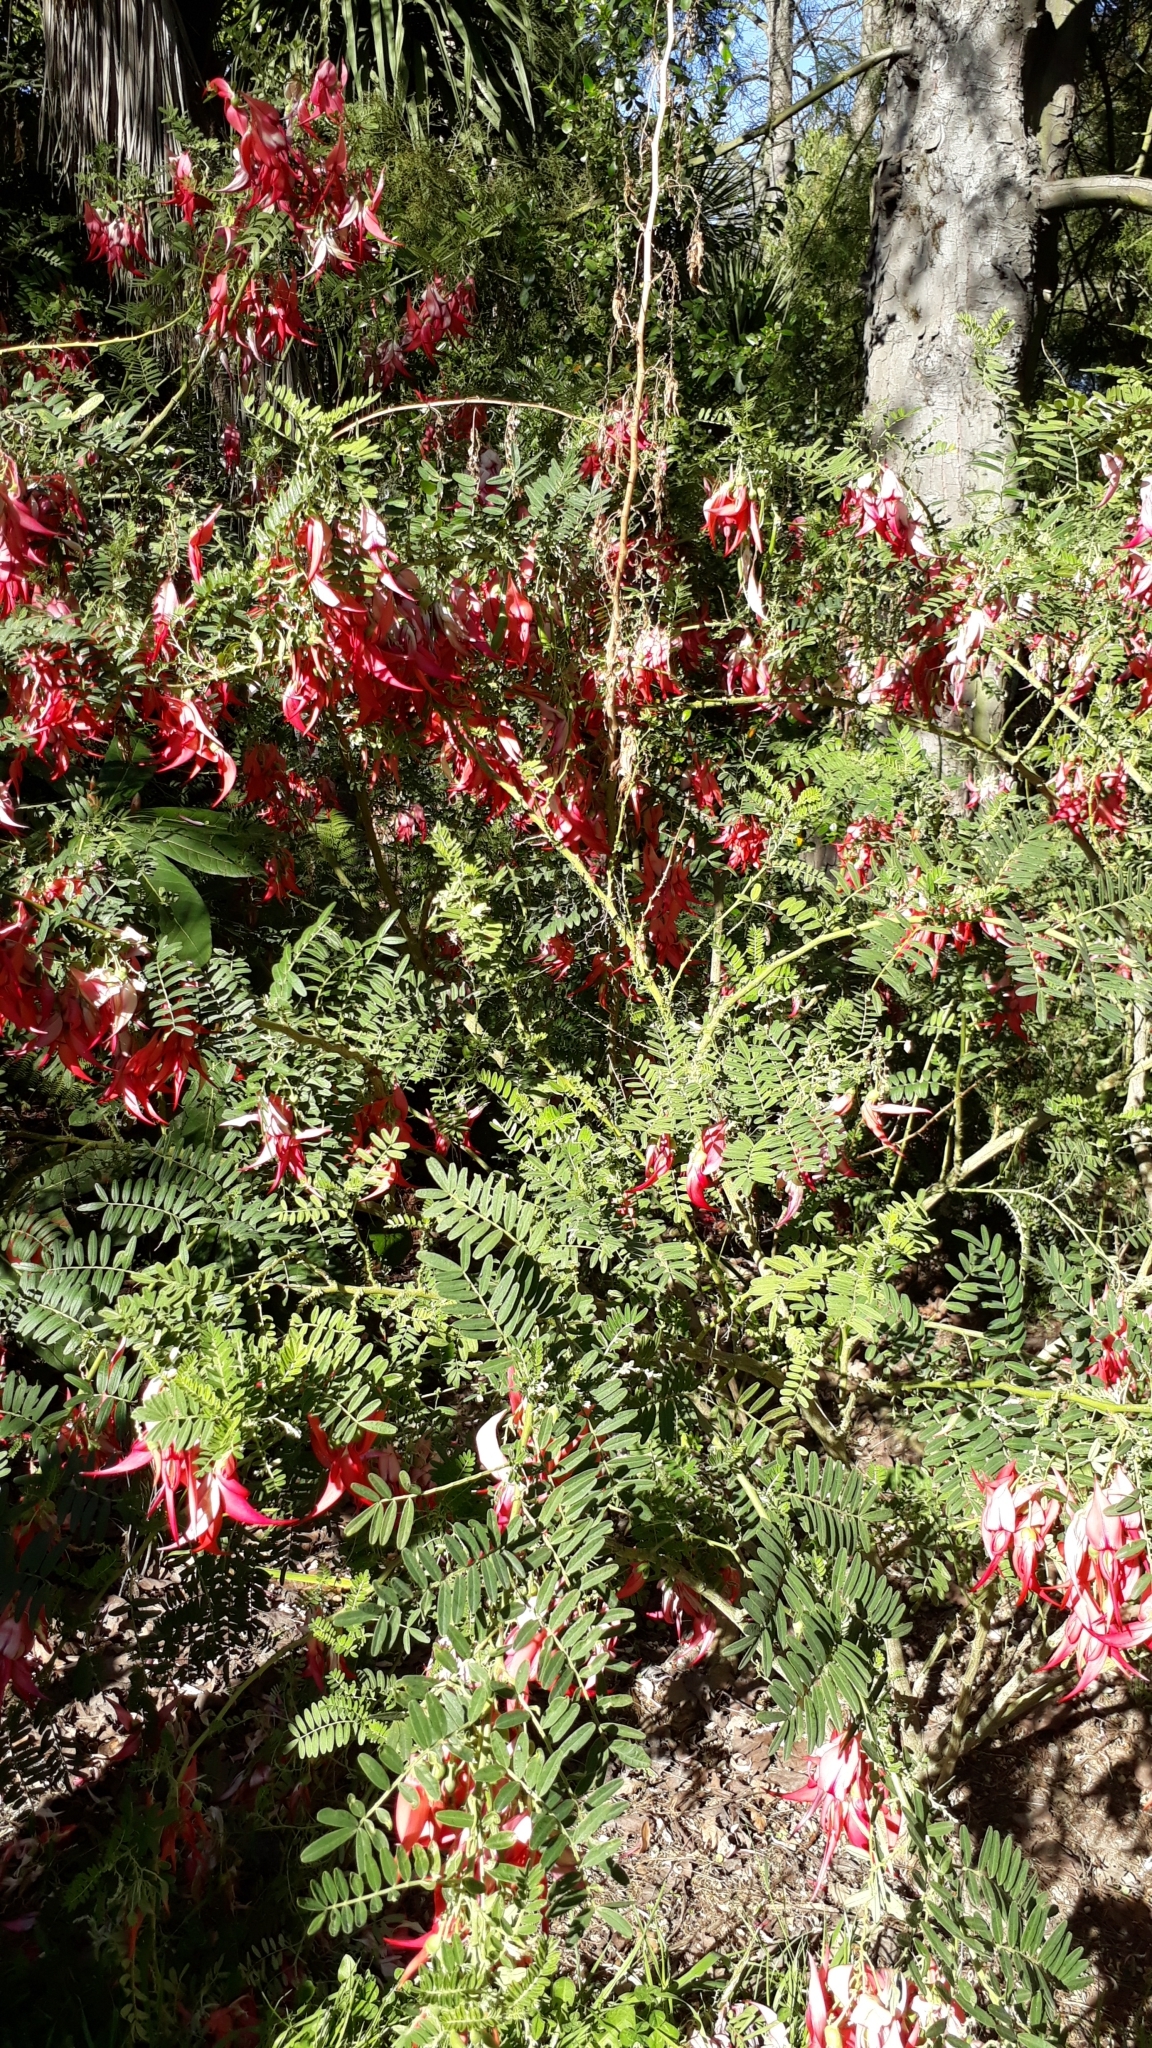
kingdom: Plantae
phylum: Tracheophyta
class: Magnoliopsida
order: Fabales
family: Fabaceae
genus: Clianthus
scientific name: Clianthus puniceus
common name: Kaka-beak
